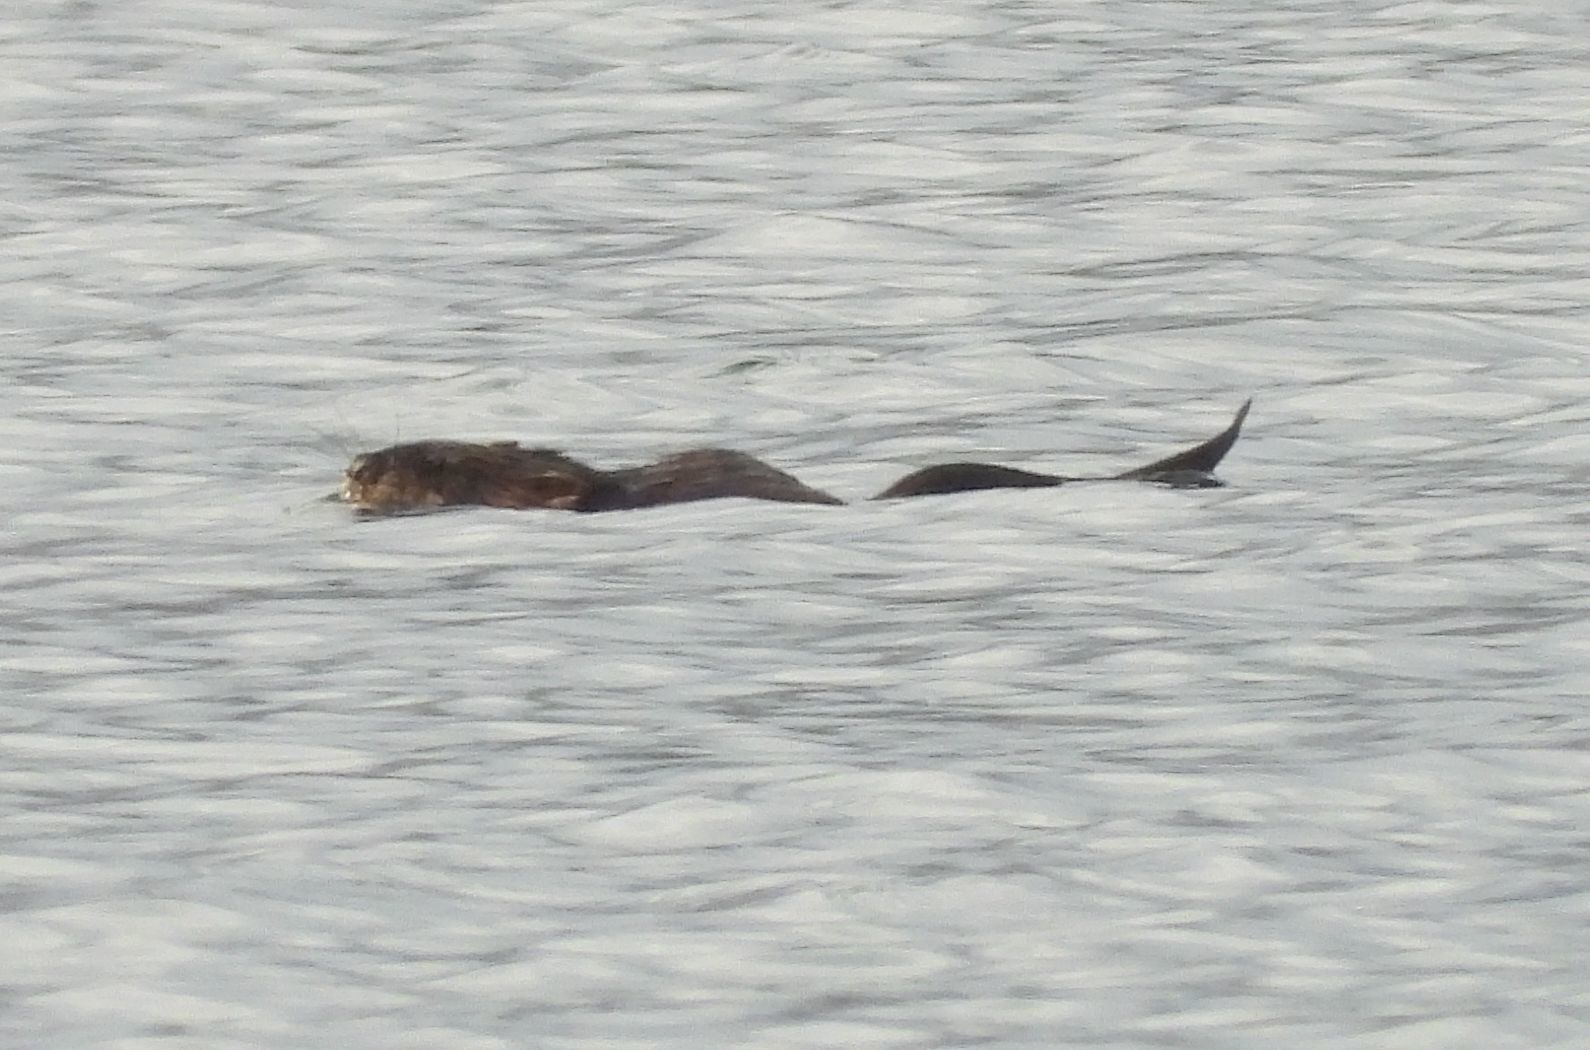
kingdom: Animalia
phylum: Chordata
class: Mammalia
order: Rodentia
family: Cricetidae
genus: Ondatra
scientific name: Ondatra zibethicus
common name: Muskrat
